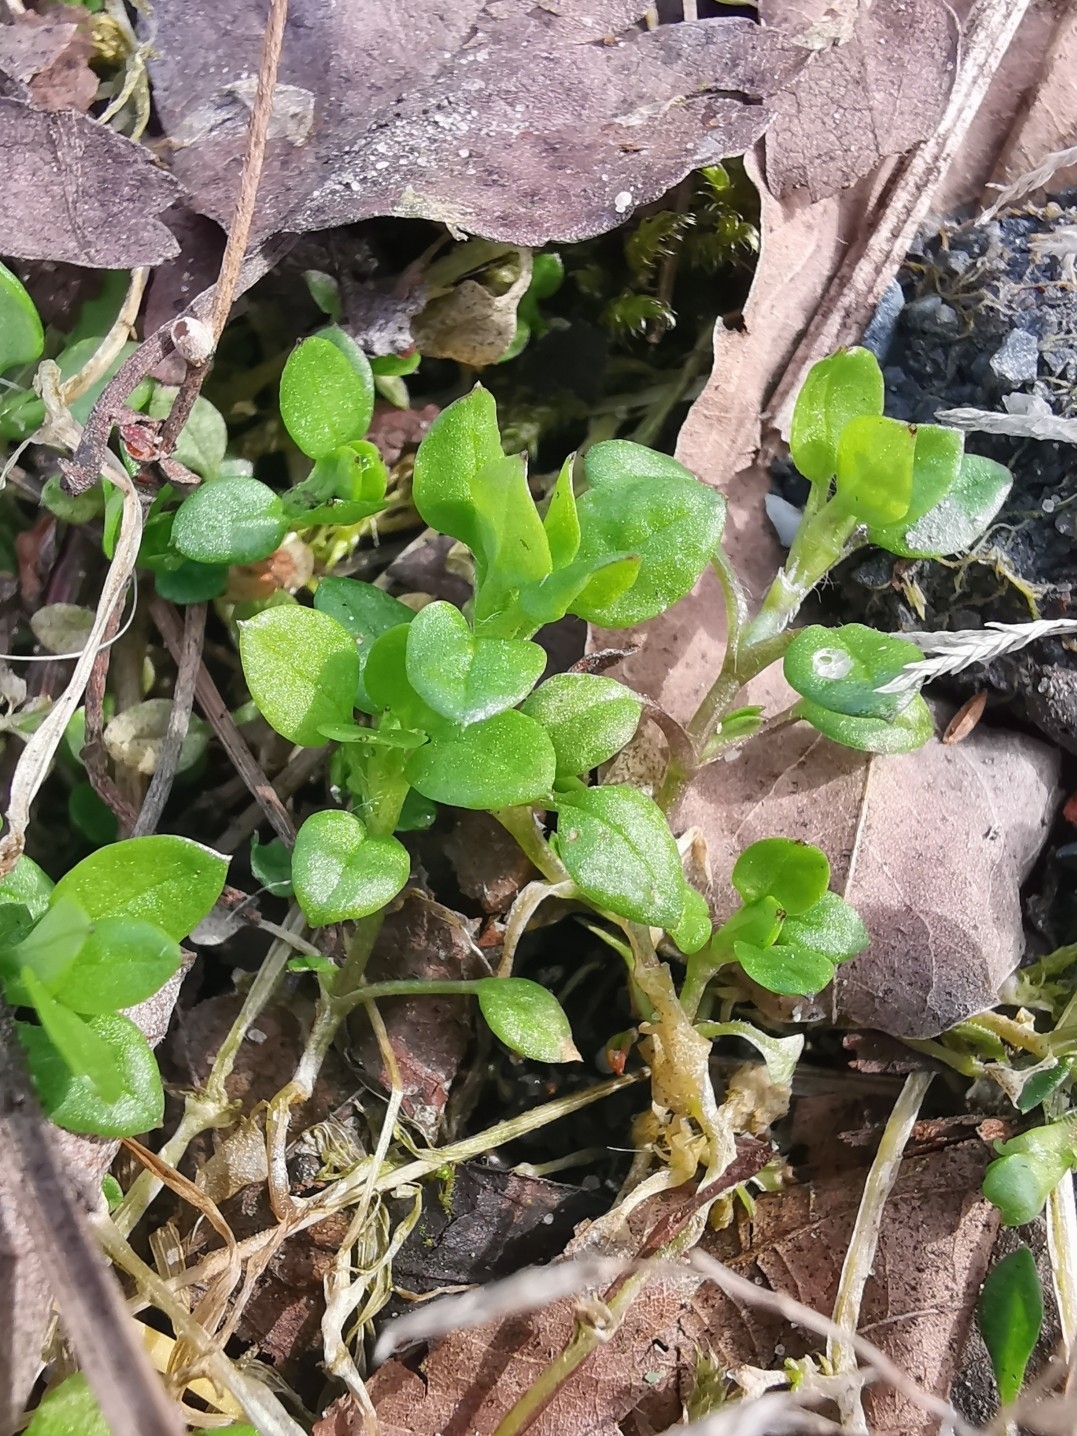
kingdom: Plantae
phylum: Tracheophyta
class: Magnoliopsida
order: Caryophyllales
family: Caryophyllaceae
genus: Stellaria
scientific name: Stellaria media
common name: Common chickweed
